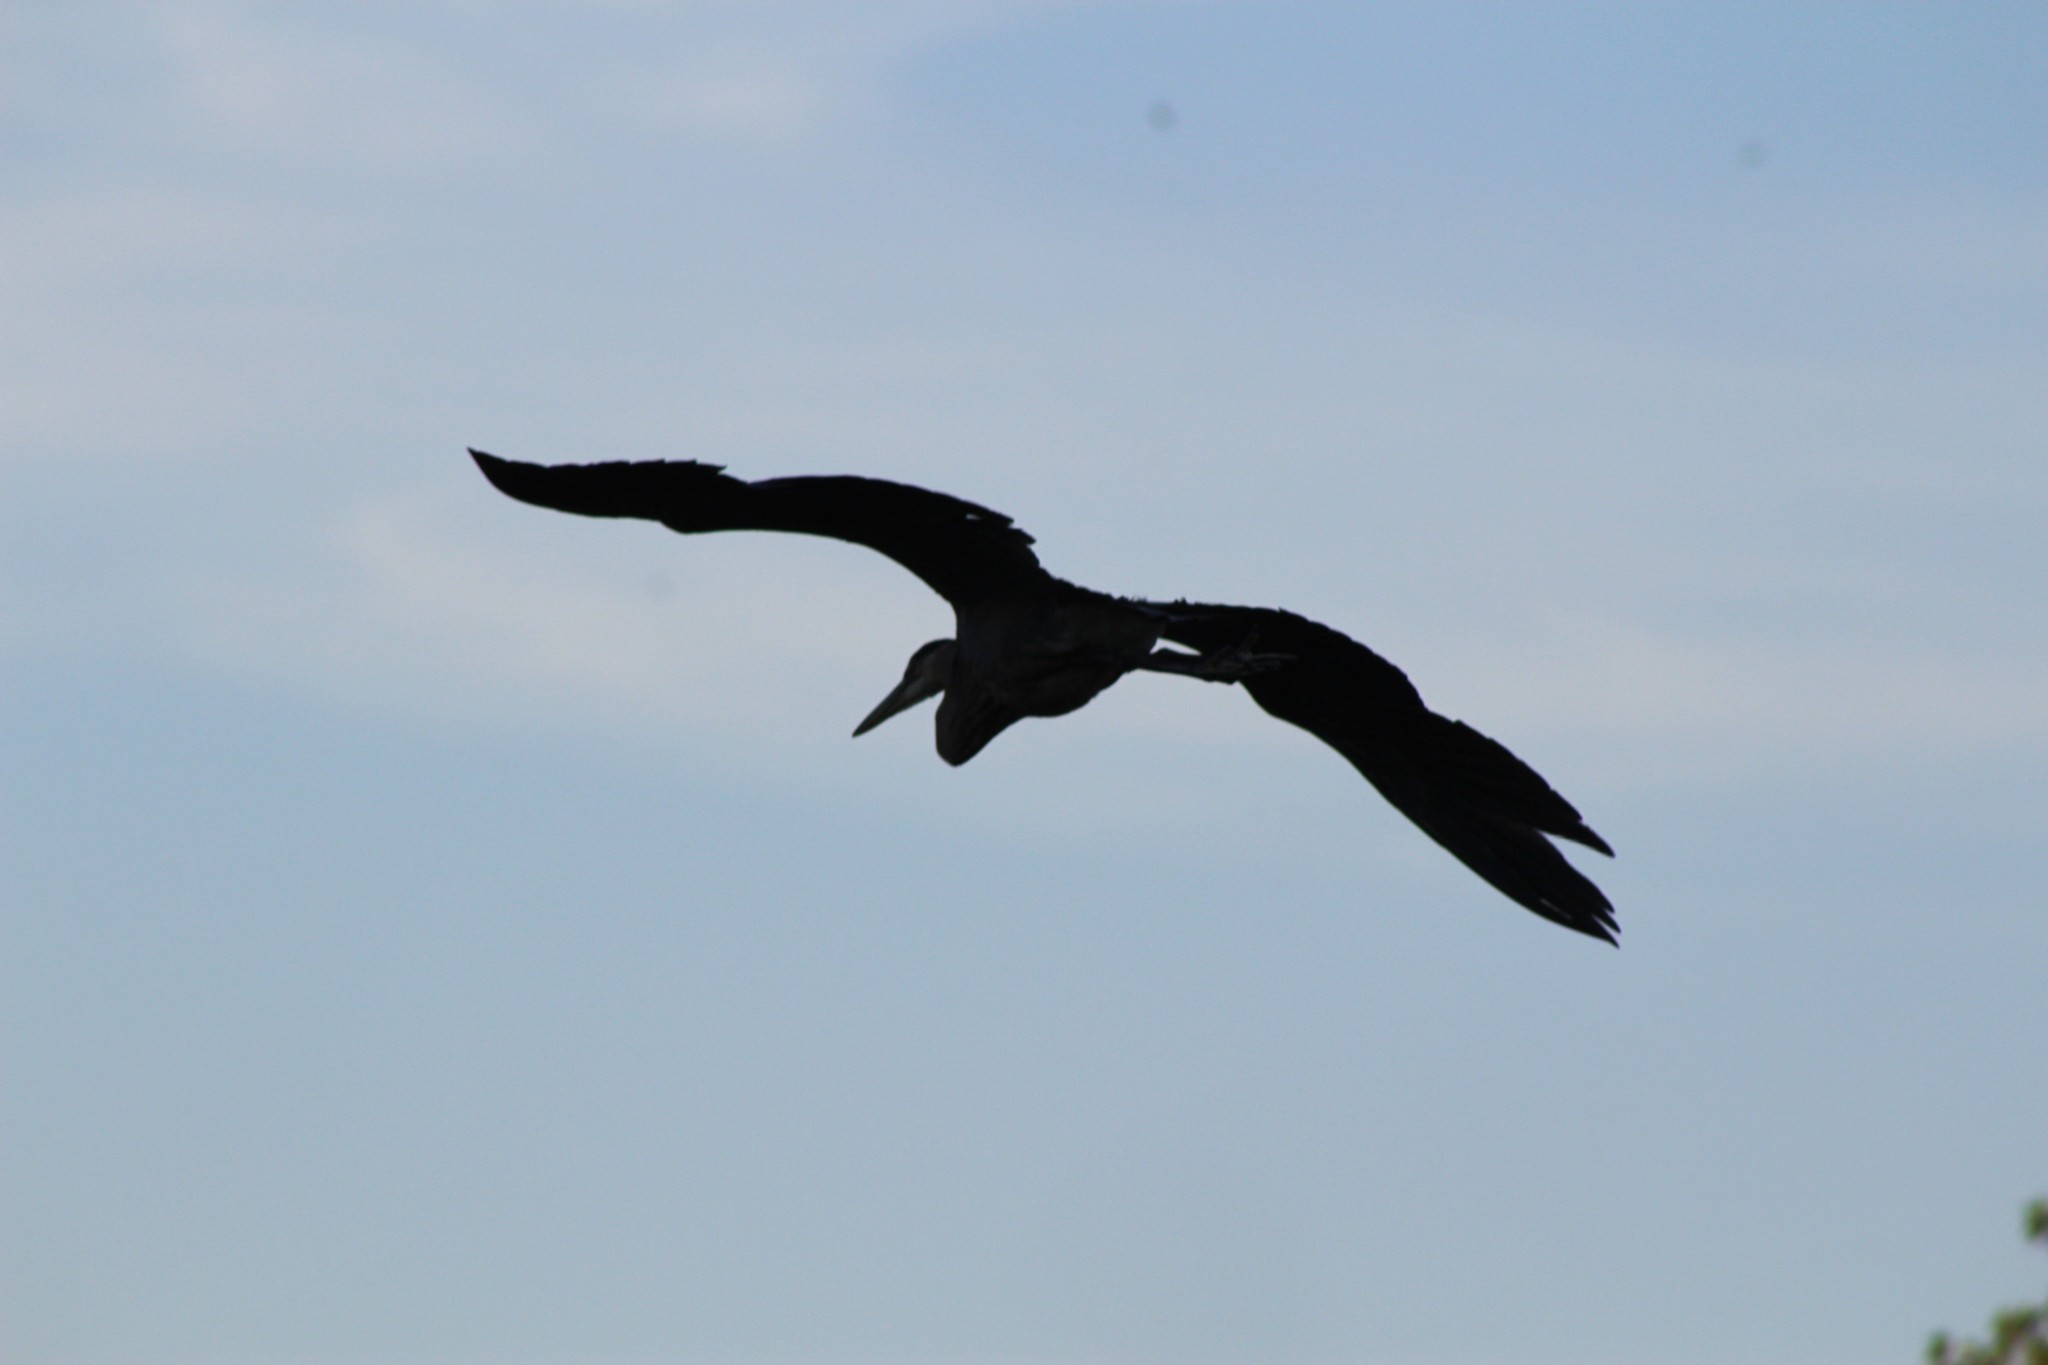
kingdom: Animalia
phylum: Chordata
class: Aves
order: Pelecaniformes
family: Ardeidae
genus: Ardea
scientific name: Ardea herodias
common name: Great blue heron
